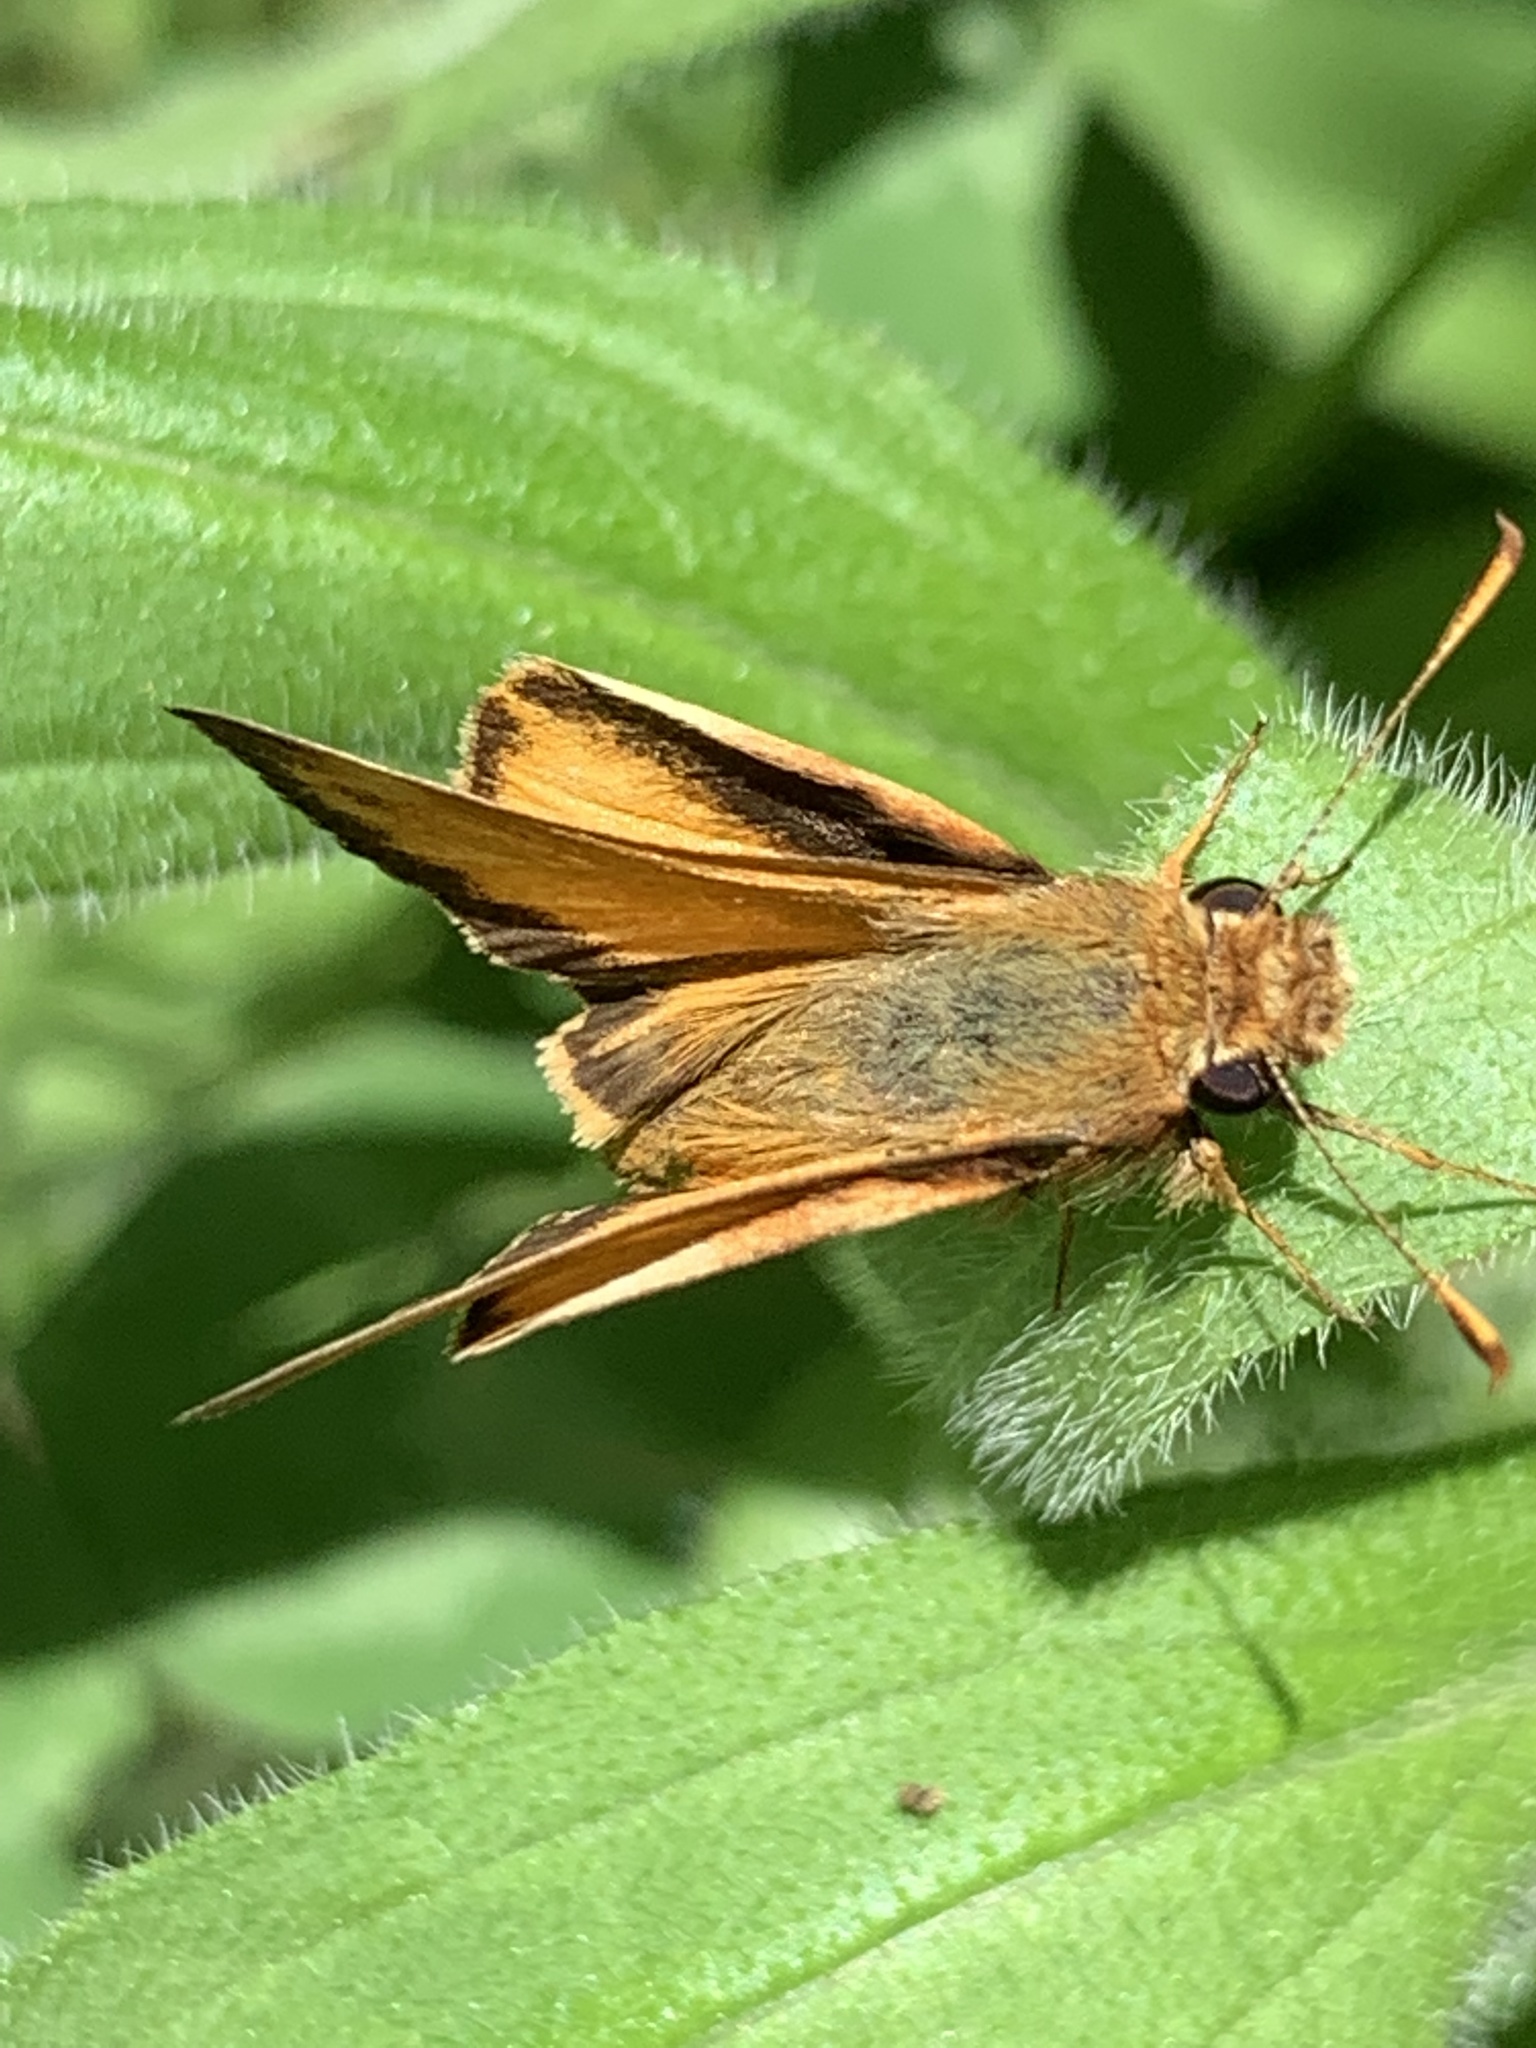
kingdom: Animalia
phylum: Arthropoda
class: Insecta
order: Lepidoptera
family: Hesperiidae
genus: Lon
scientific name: Lon zabulon
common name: Zabulon skipper
